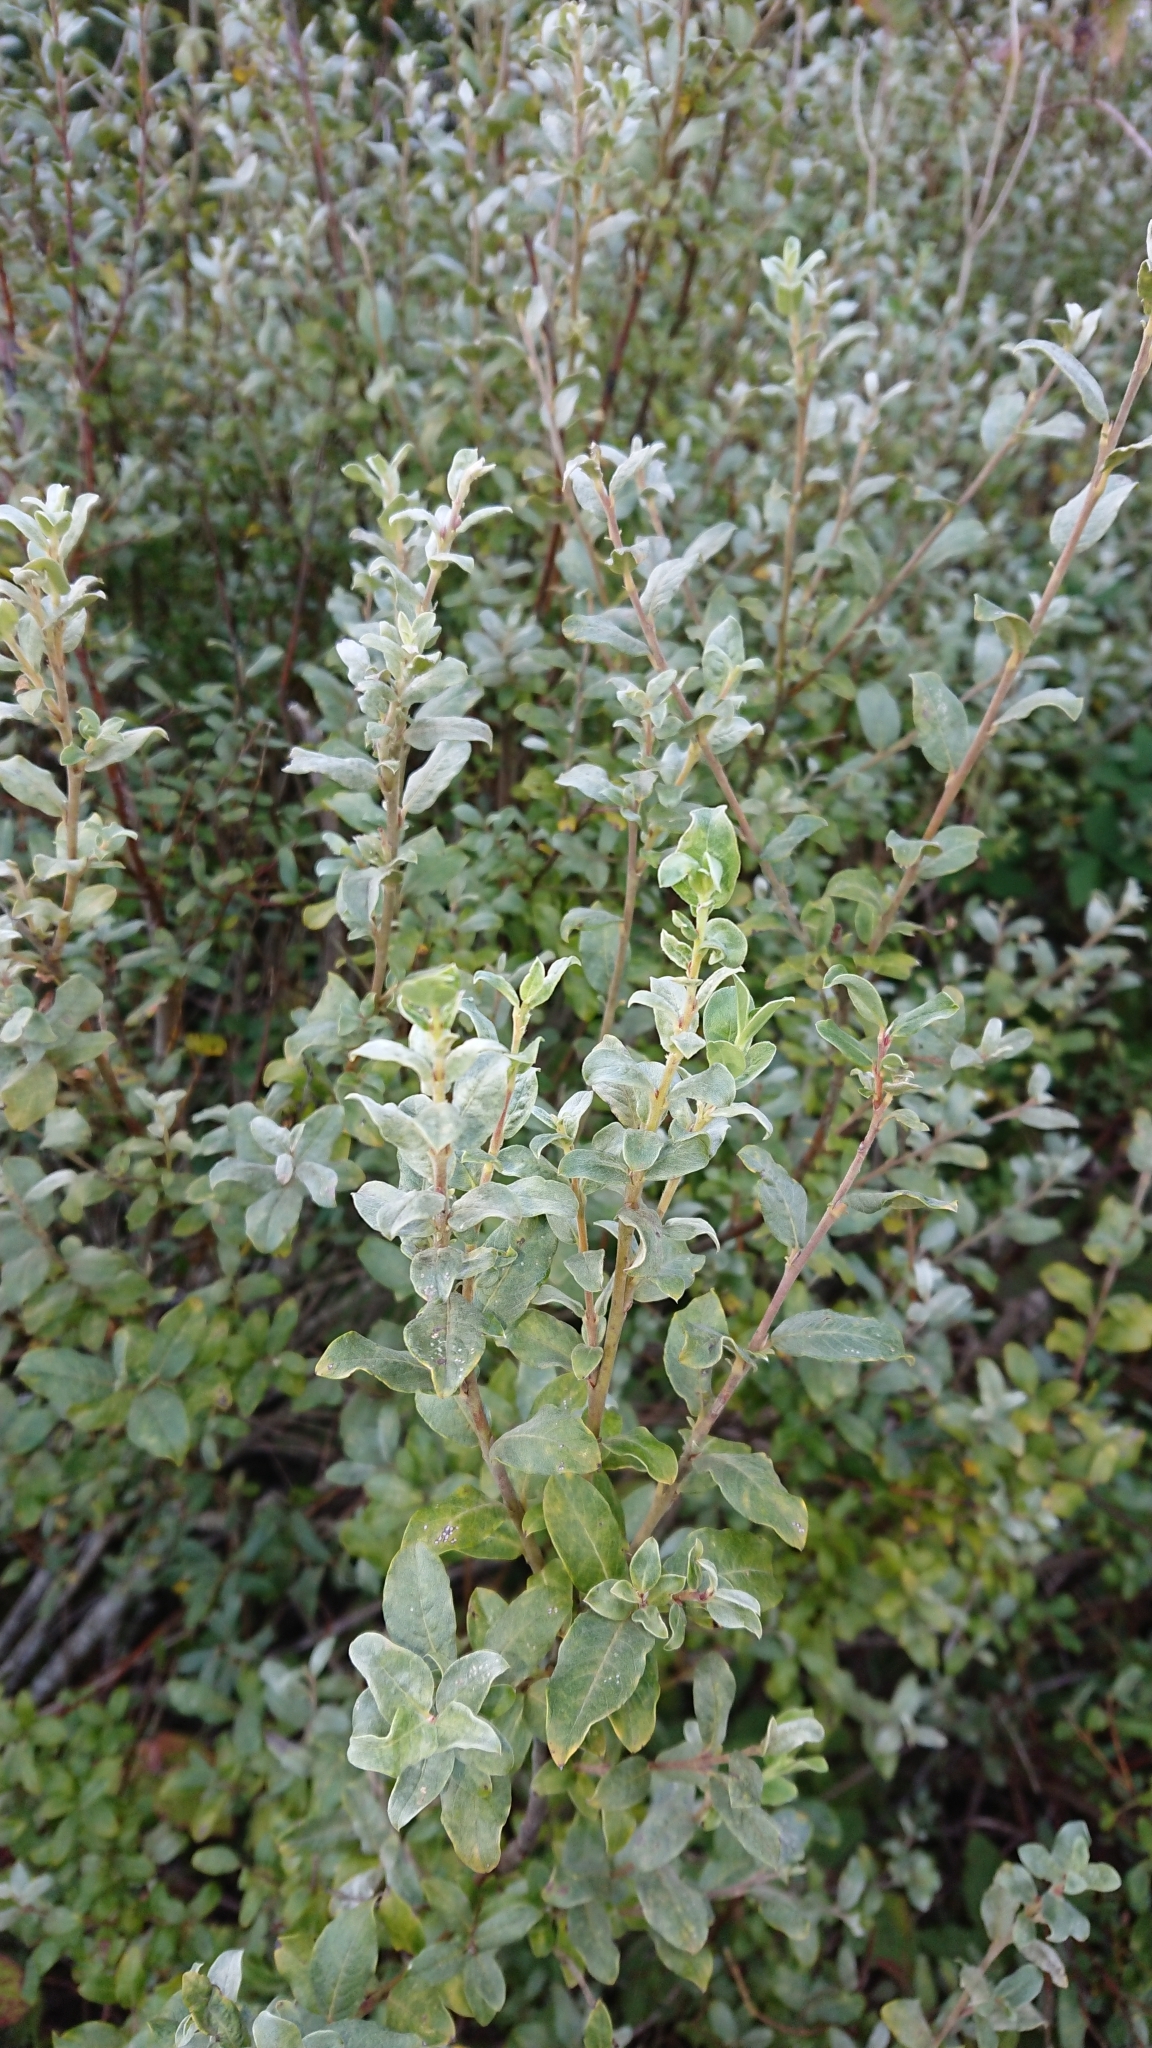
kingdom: Plantae
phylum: Tracheophyta
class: Magnoliopsida
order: Malpighiales
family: Salicaceae
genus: Salix
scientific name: Salix repens
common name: Creeping willow
